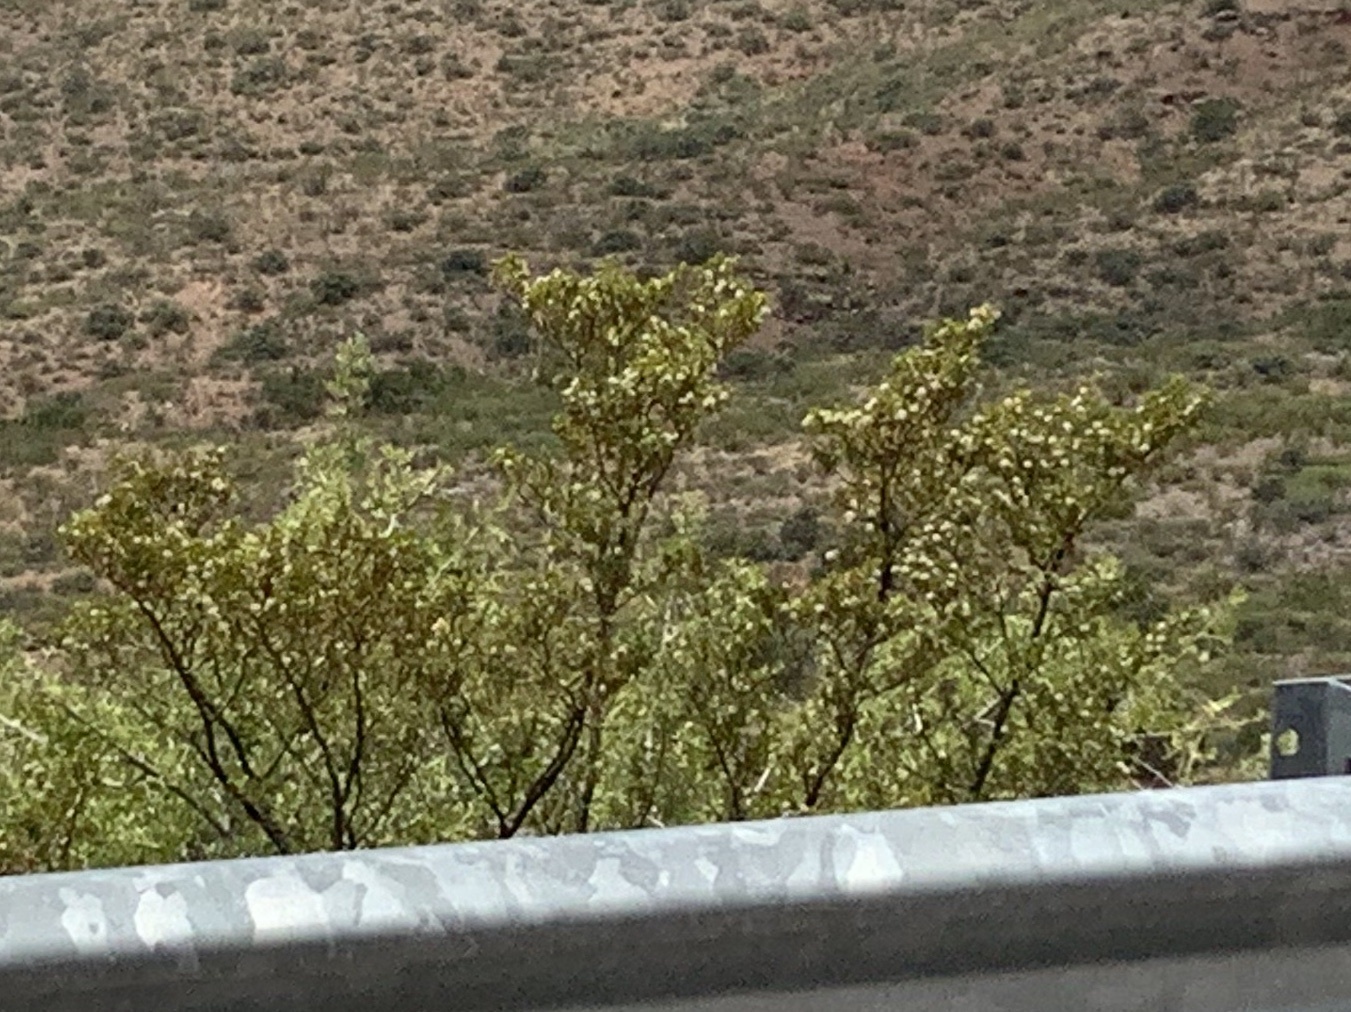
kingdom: Plantae
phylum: Tracheophyta
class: Magnoliopsida
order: Zygophyllales
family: Zygophyllaceae
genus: Larrea
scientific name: Larrea tridentata
